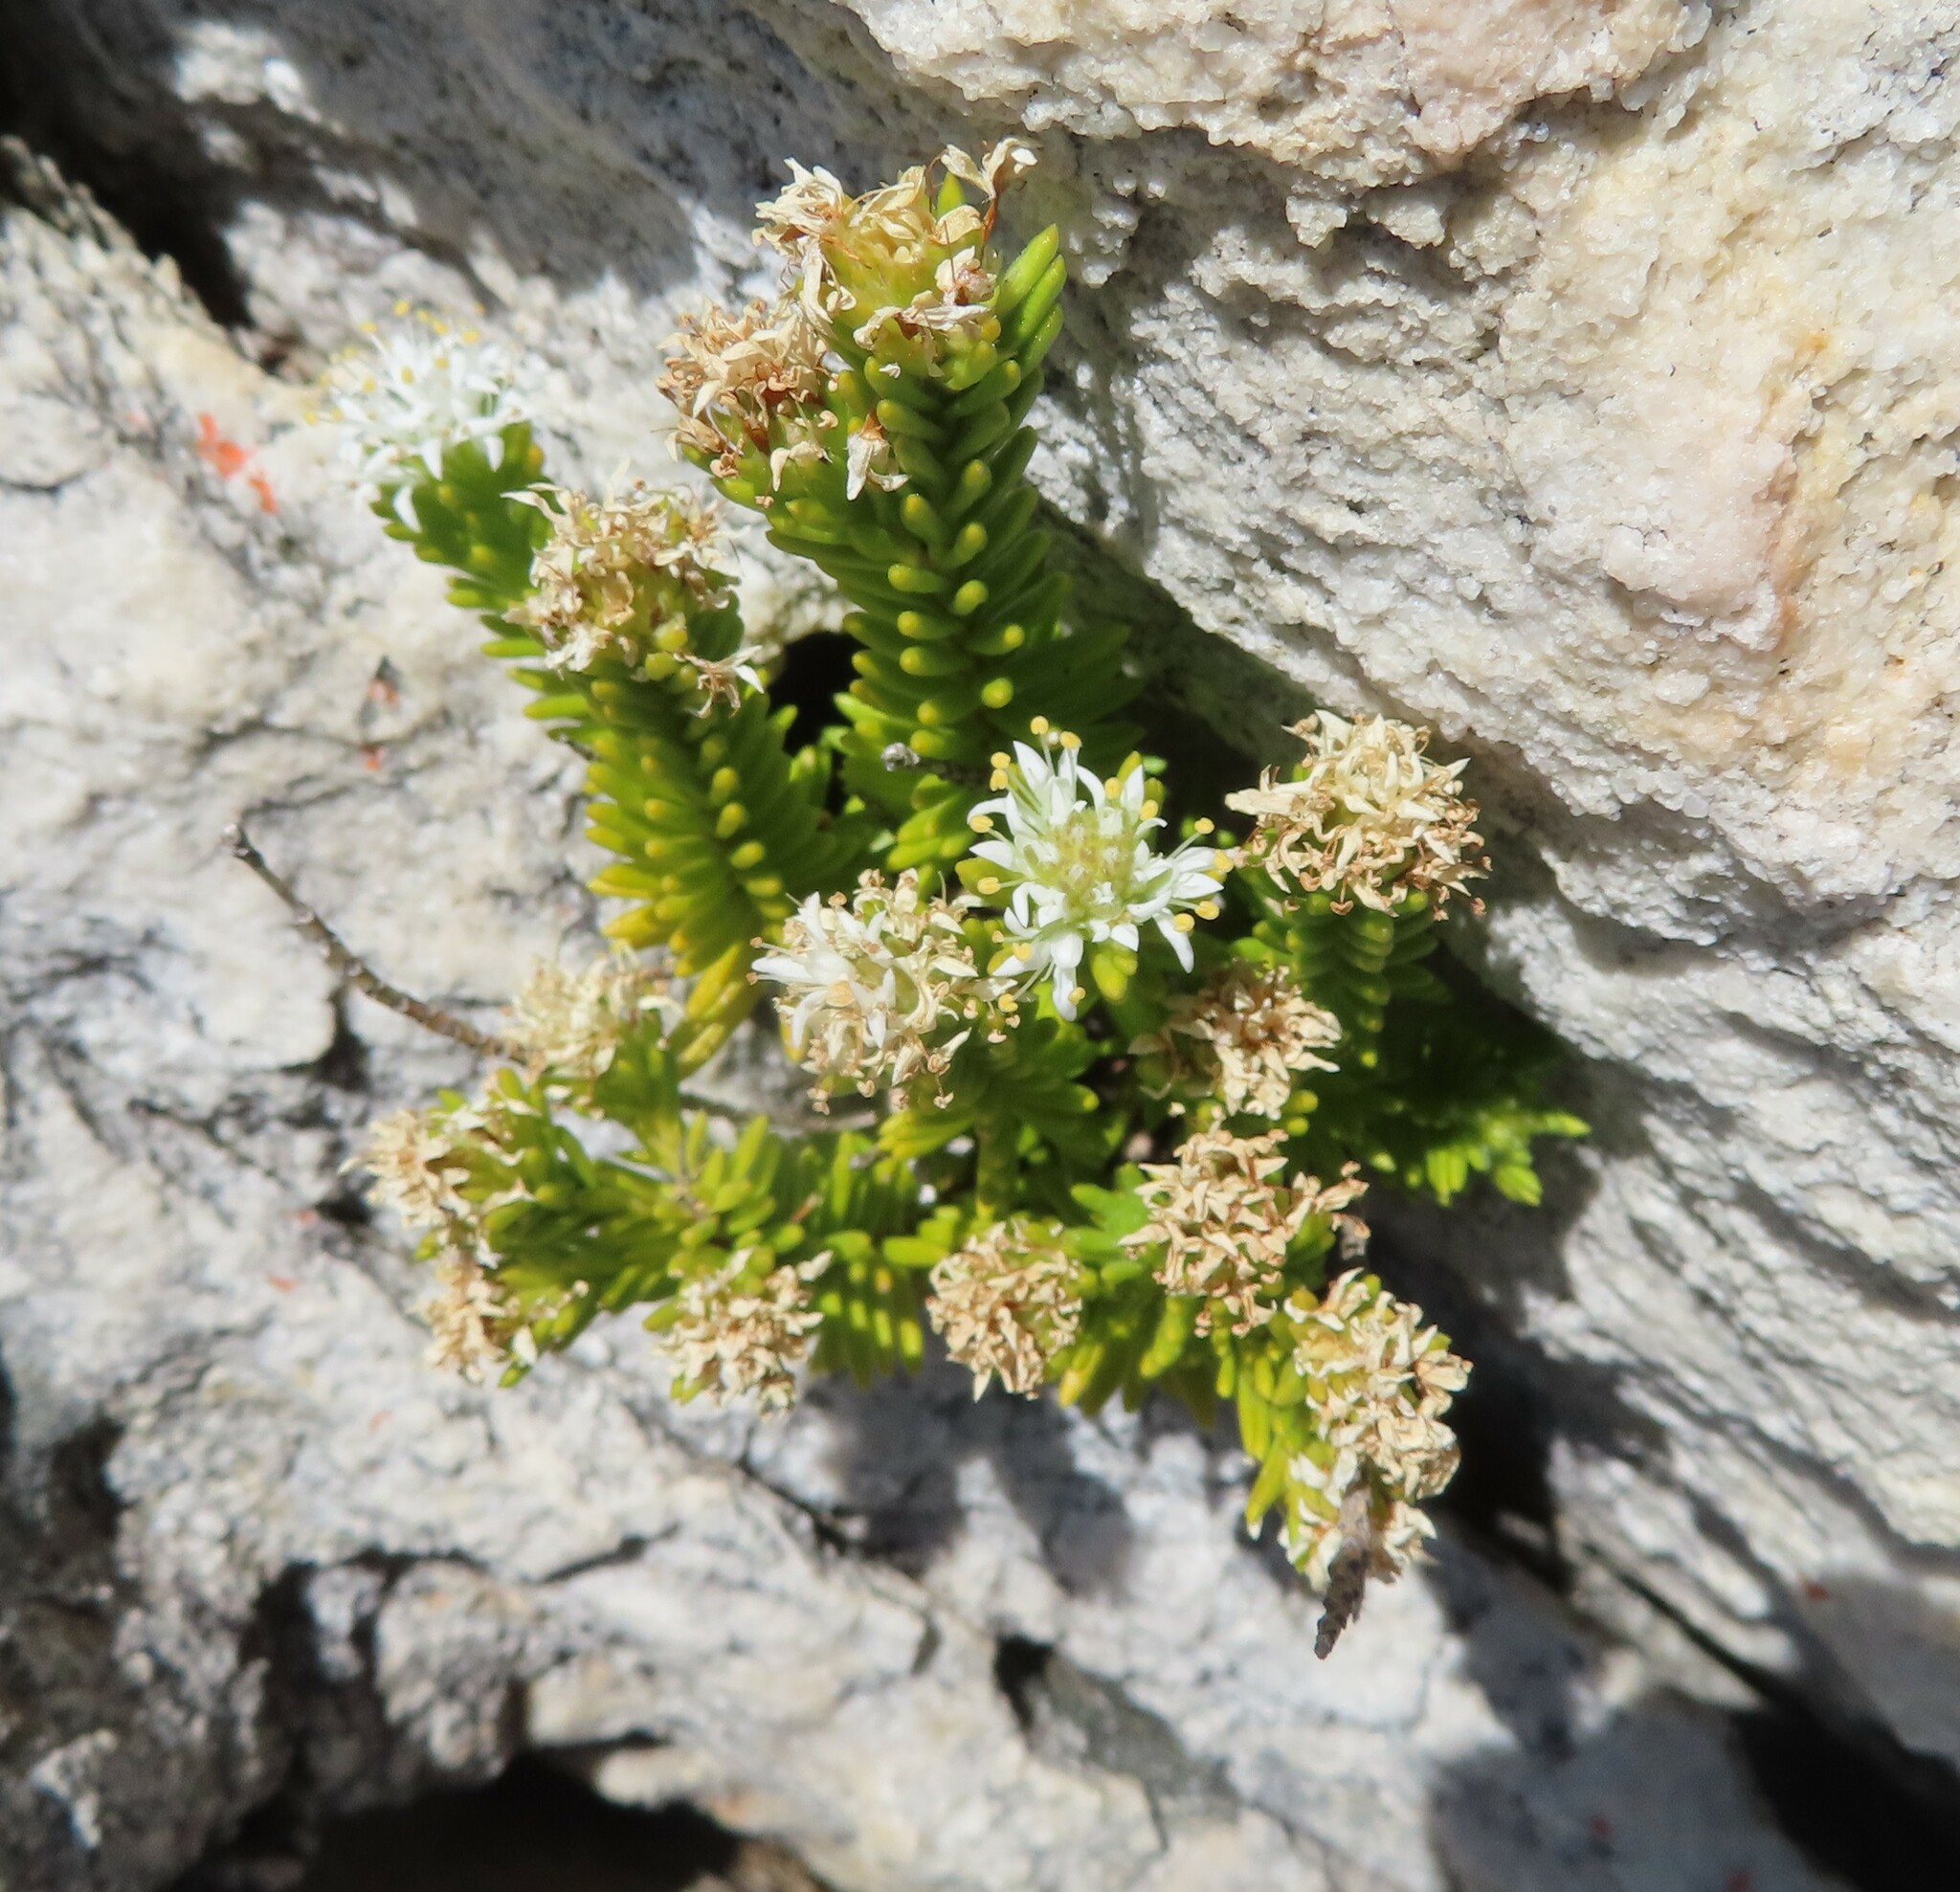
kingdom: Plantae
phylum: Tracheophyta
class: Magnoliopsida
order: Lamiales
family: Stilbaceae
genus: Stilbe
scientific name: Stilbe rupestris
